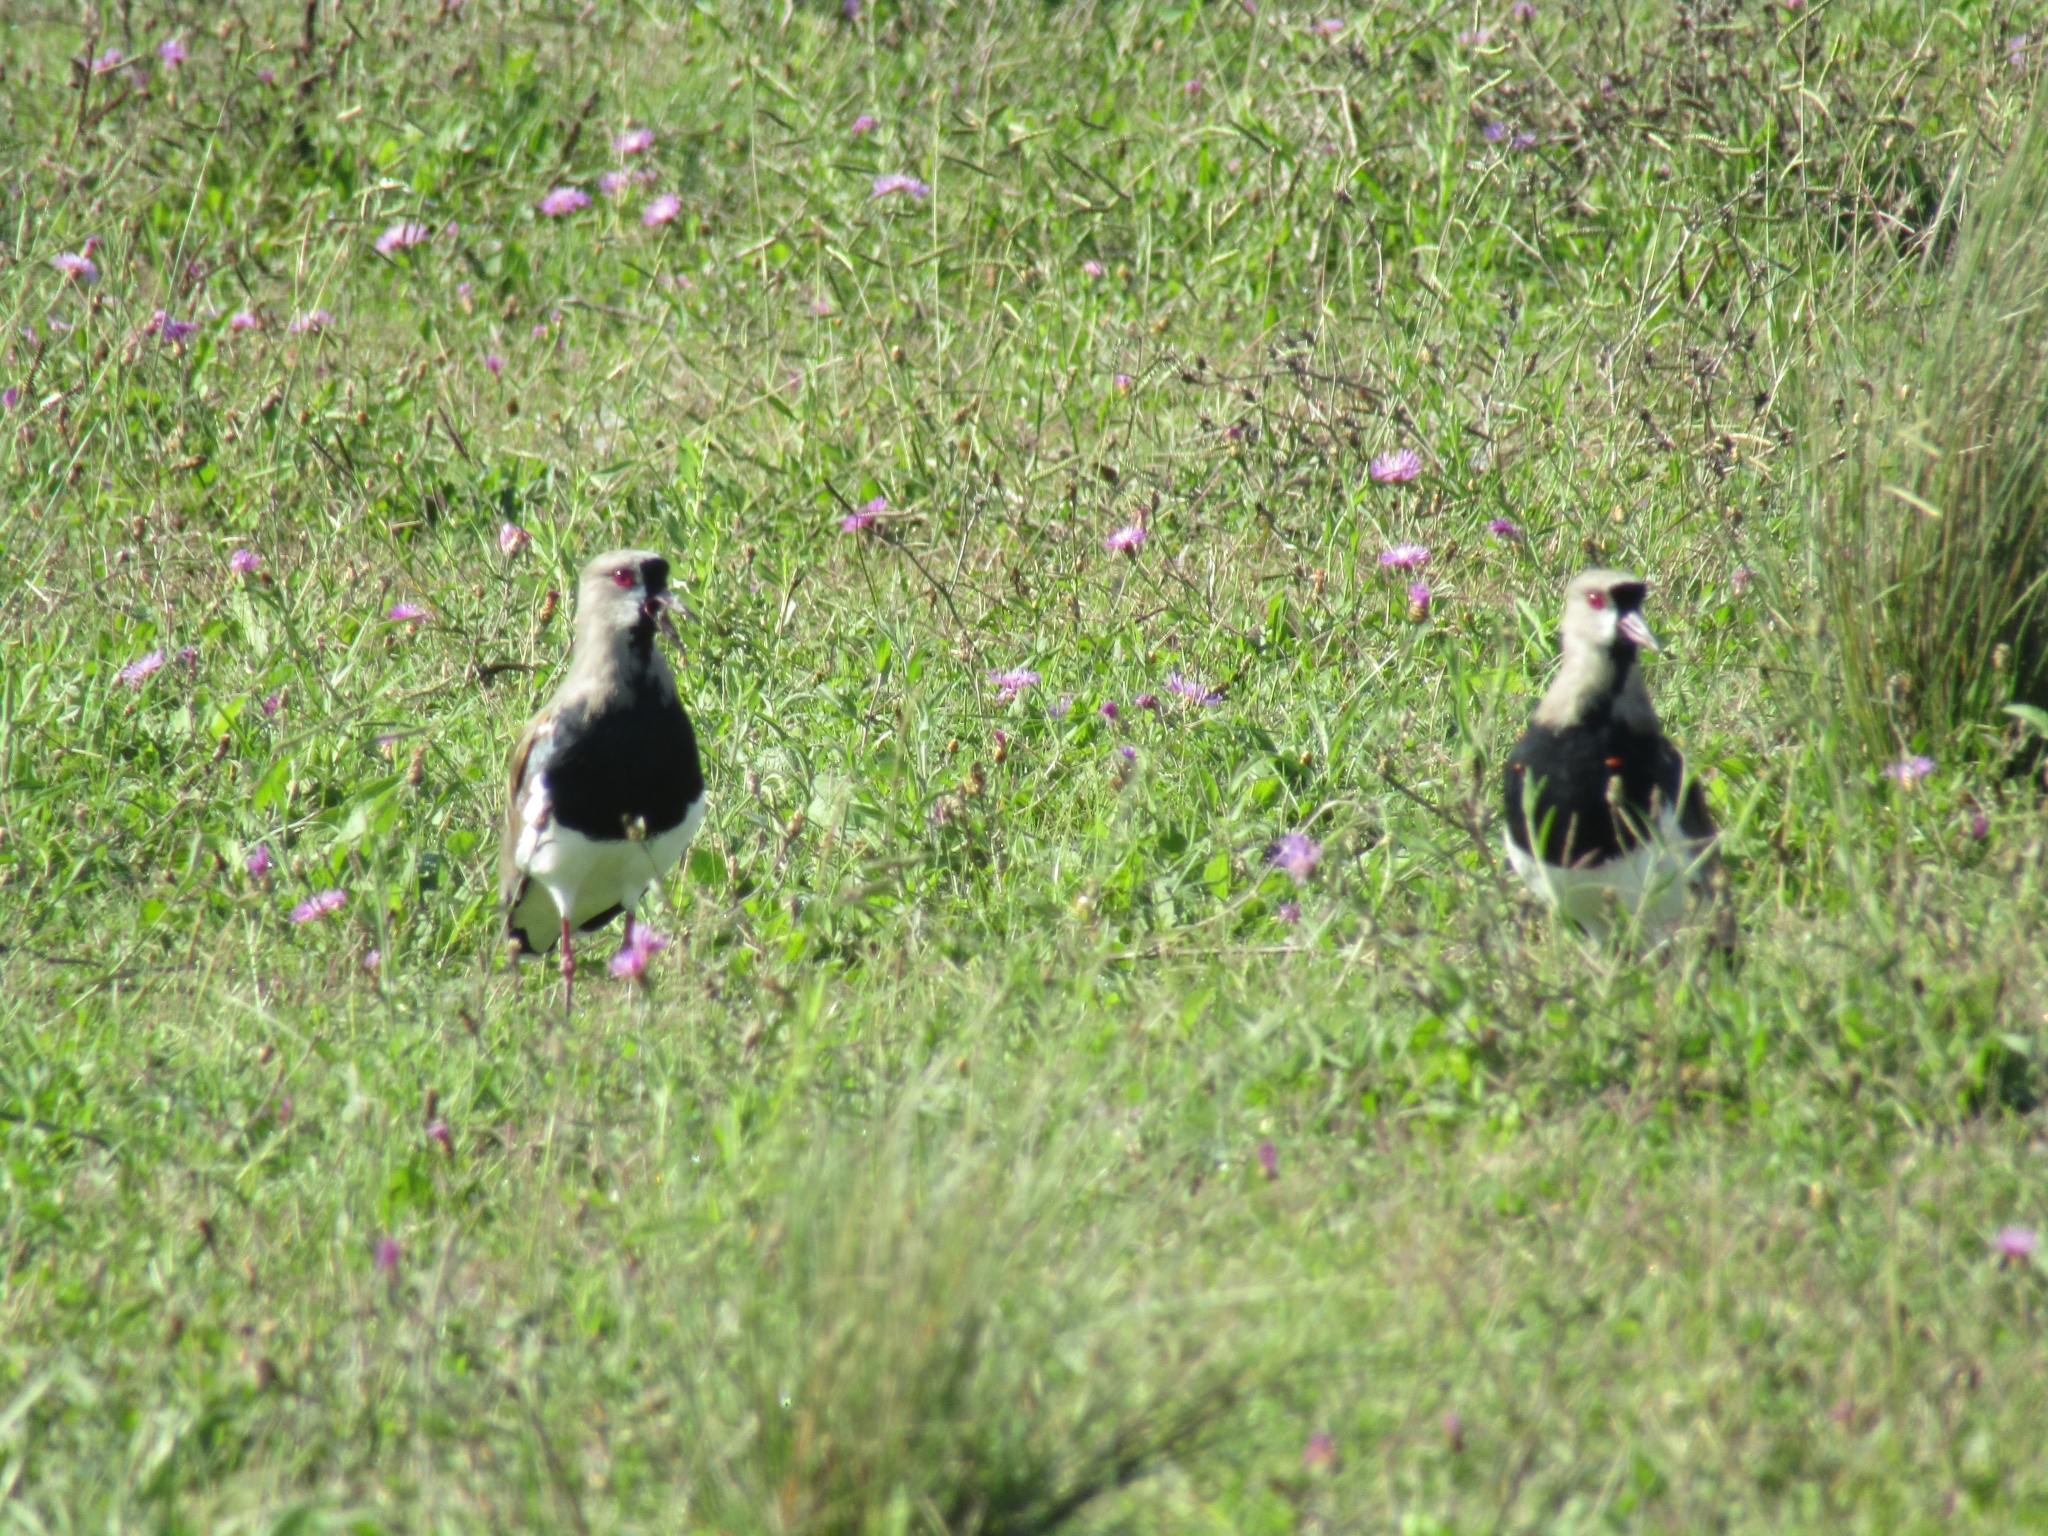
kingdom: Animalia
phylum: Chordata
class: Aves
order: Charadriiformes
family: Charadriidae
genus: Vanellus
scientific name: Vanellus chilensis
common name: Southern lapwing
